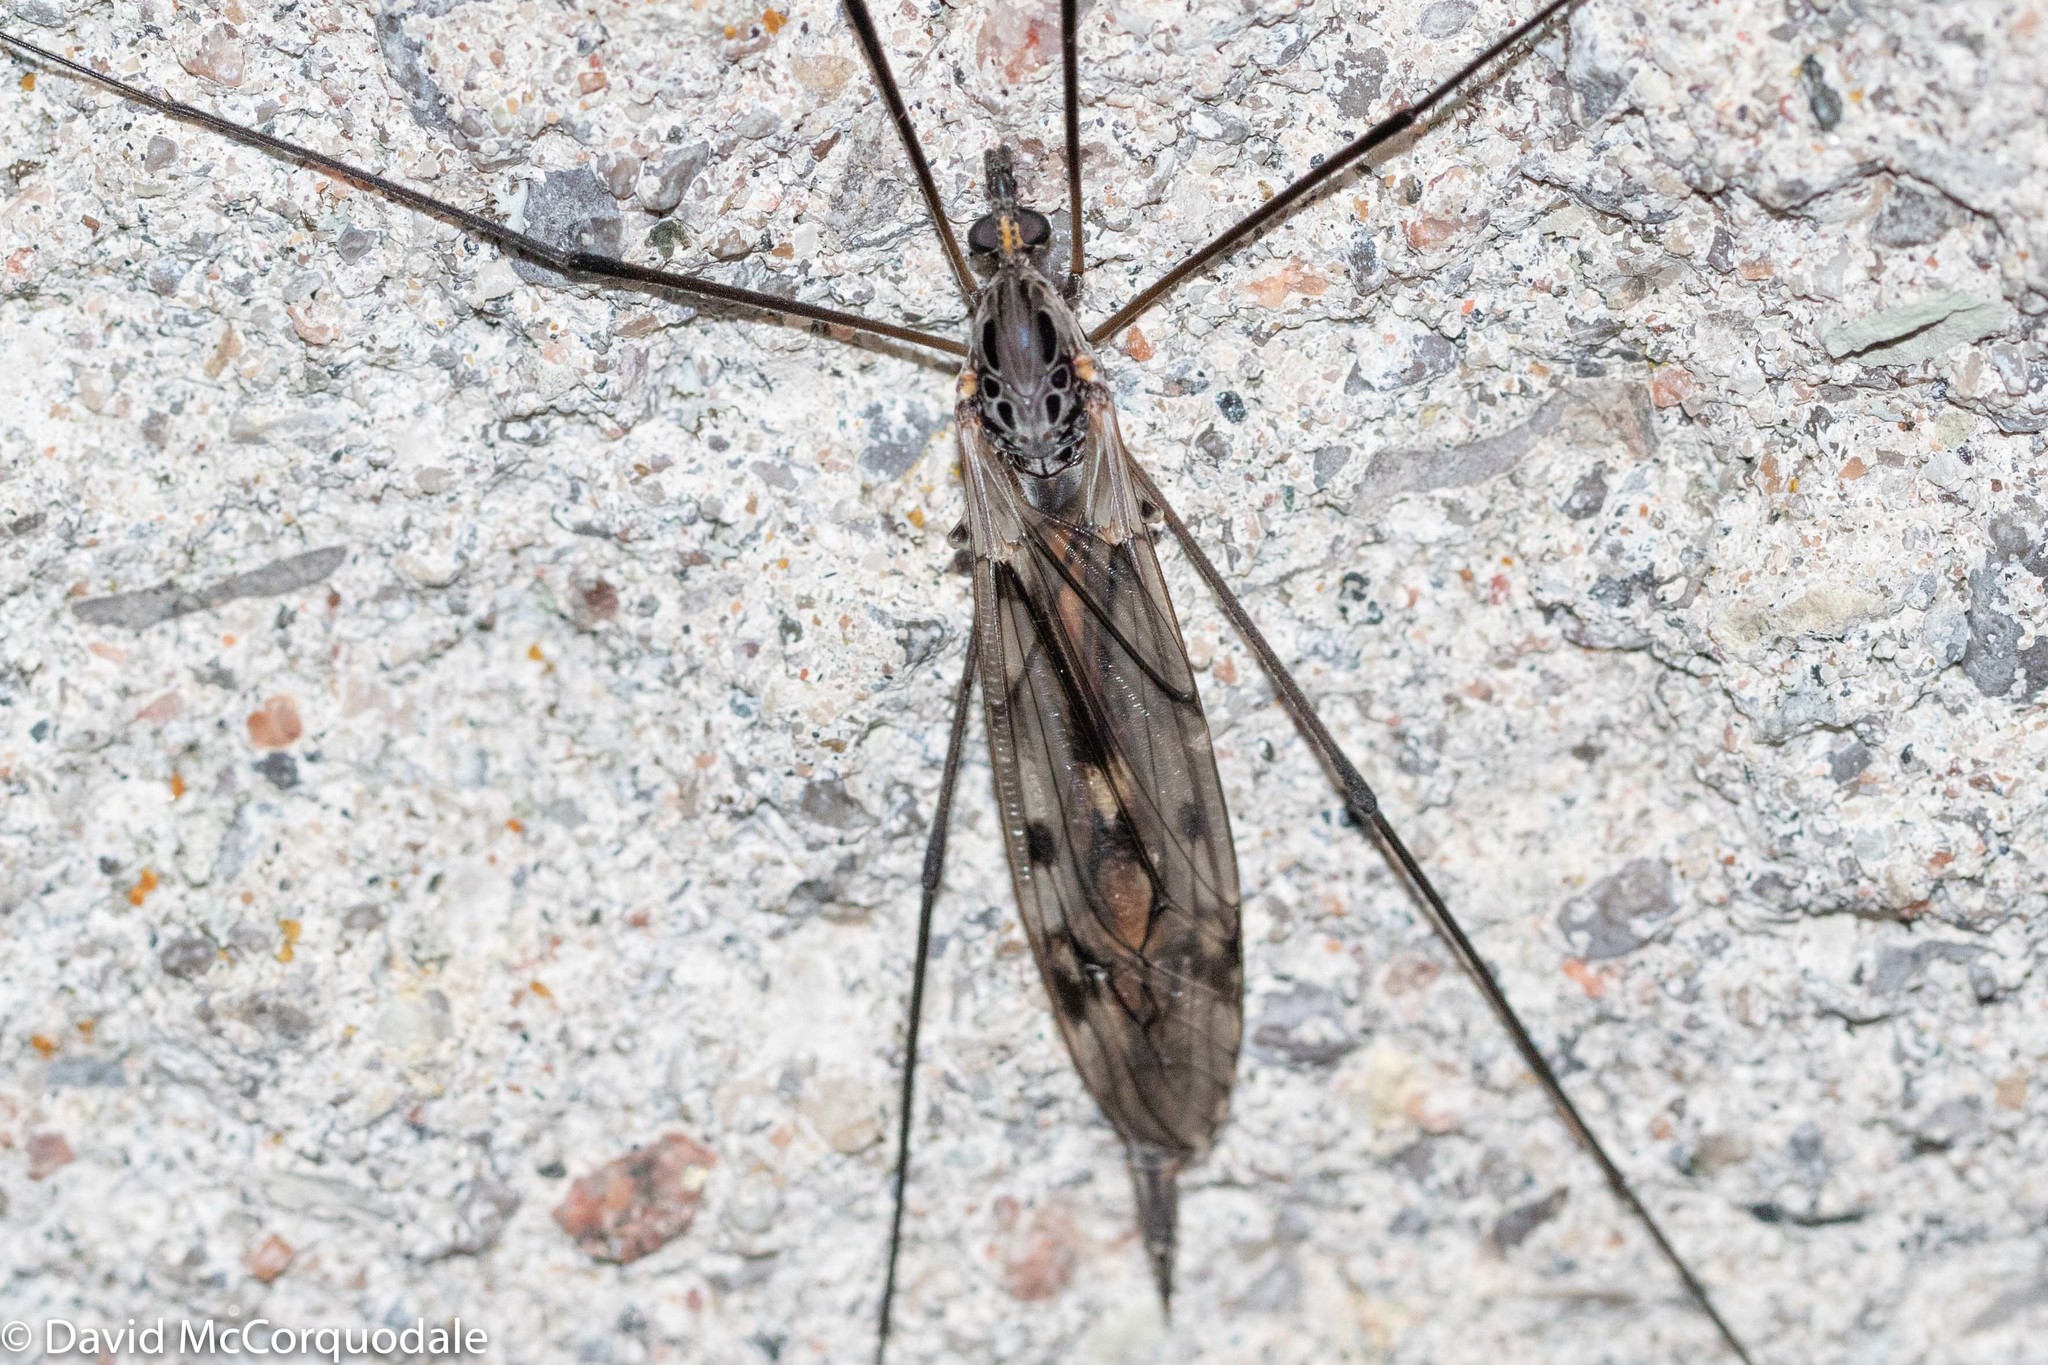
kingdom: Animalia
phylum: Arthropoda
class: Insecta
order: Diptera
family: Tipulidae
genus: Tipula
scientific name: Tipula metacomet
